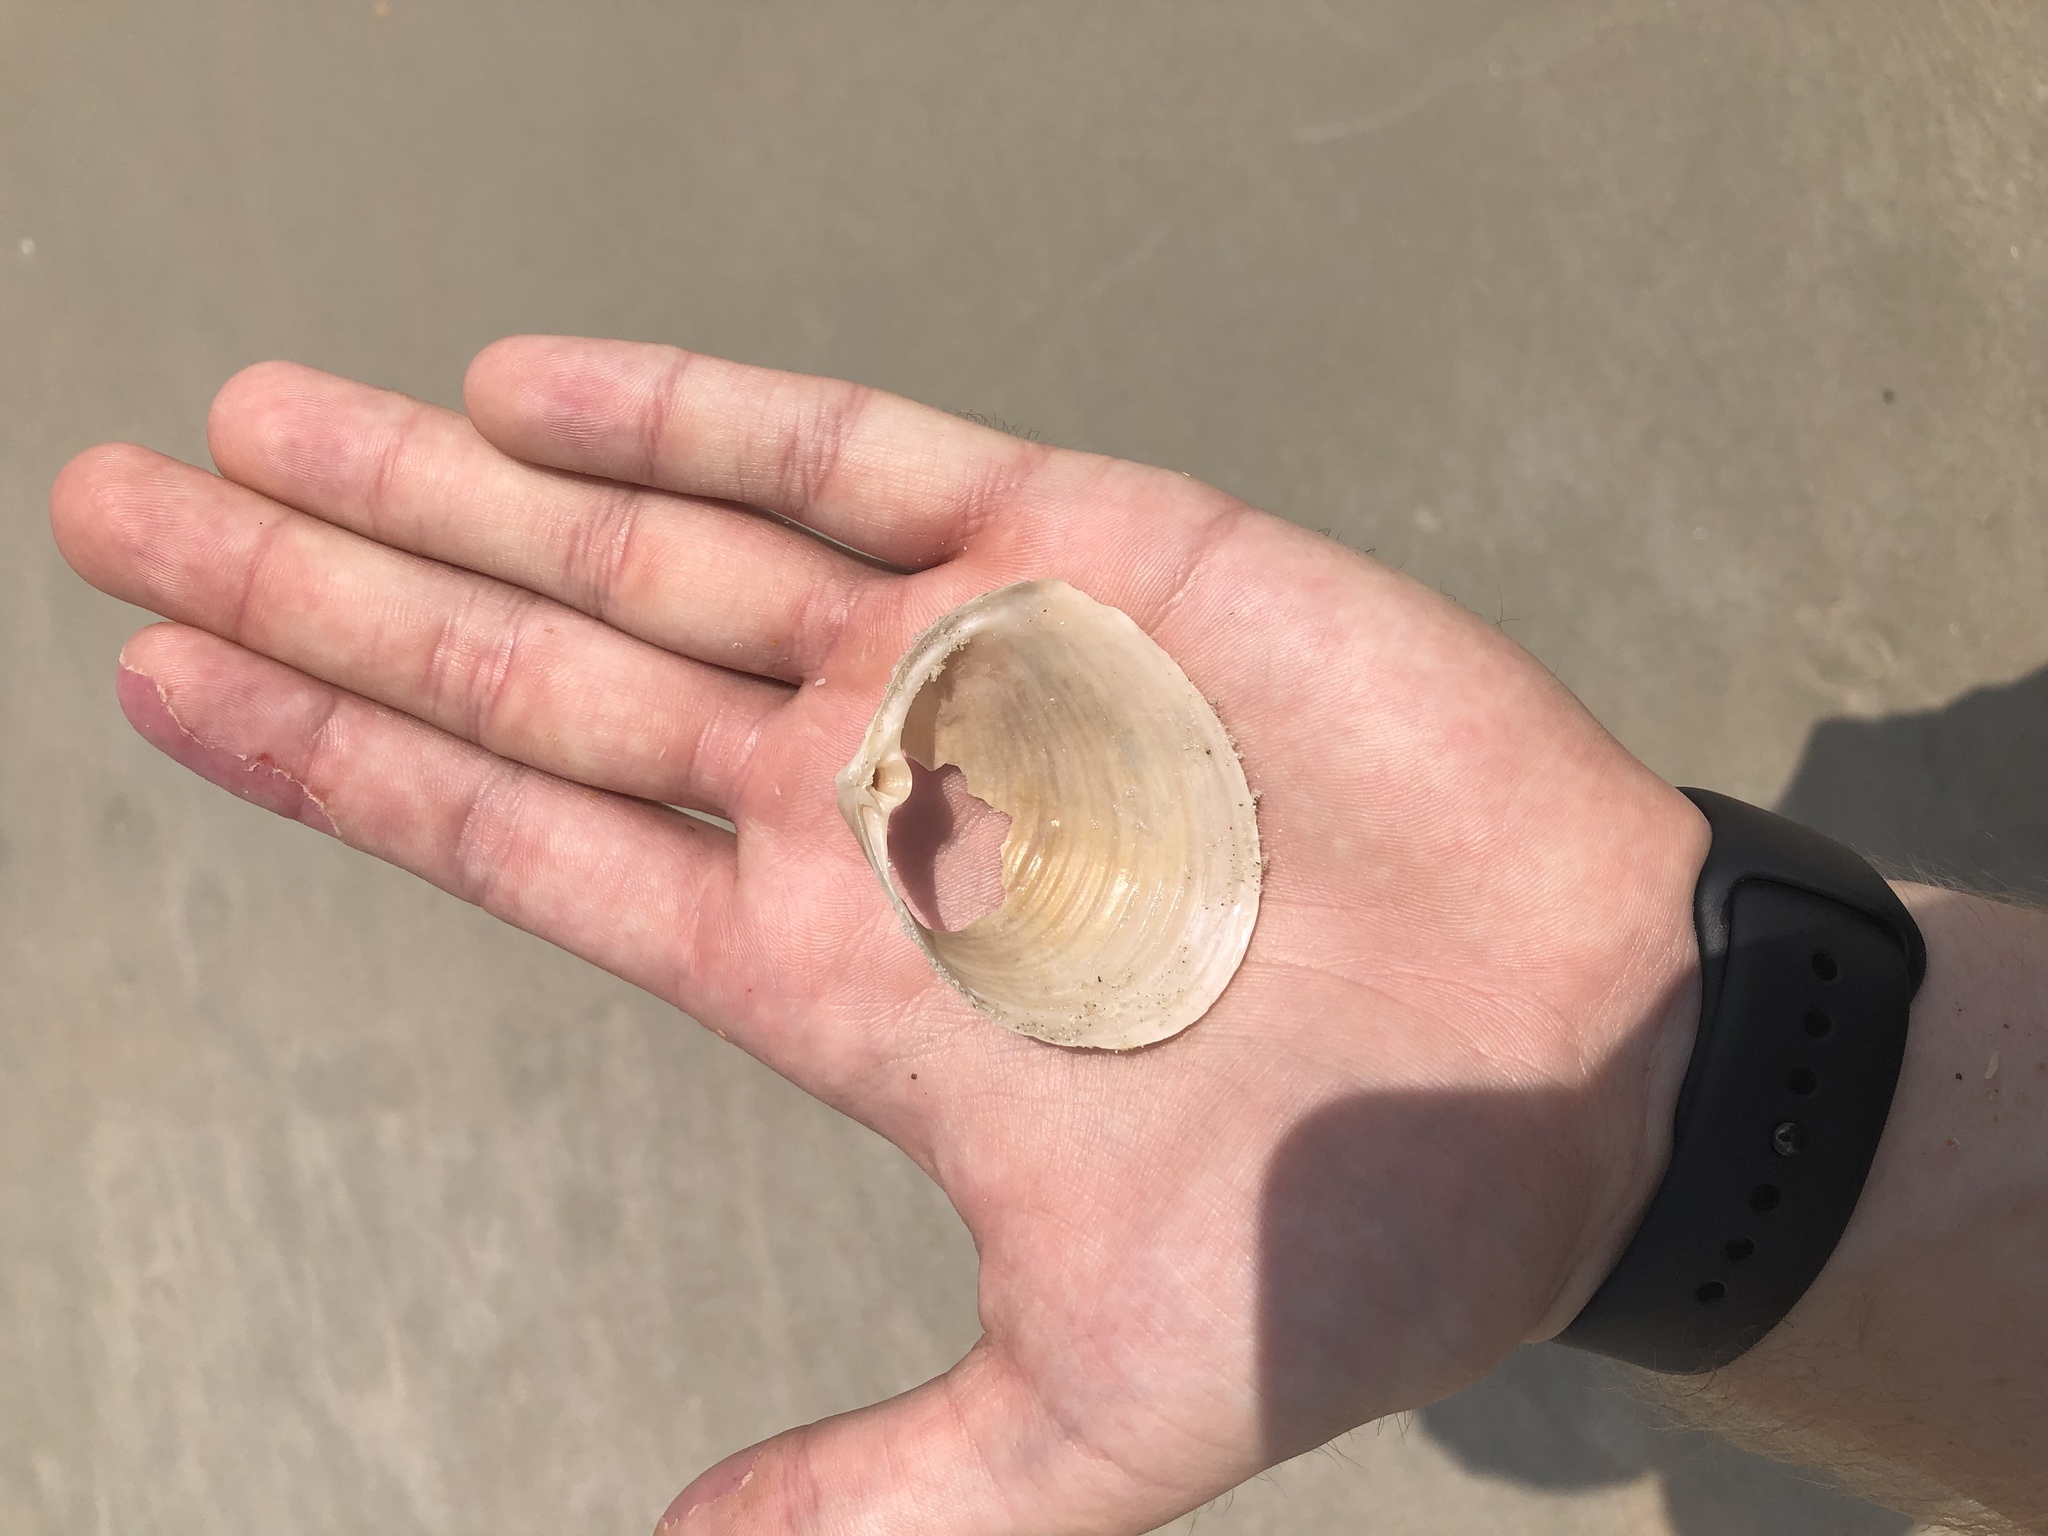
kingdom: Animalia
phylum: Mollusca
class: Bivalvia
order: Venerida
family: Anatinellidae
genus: Raeta
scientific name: Raeta plicatella
